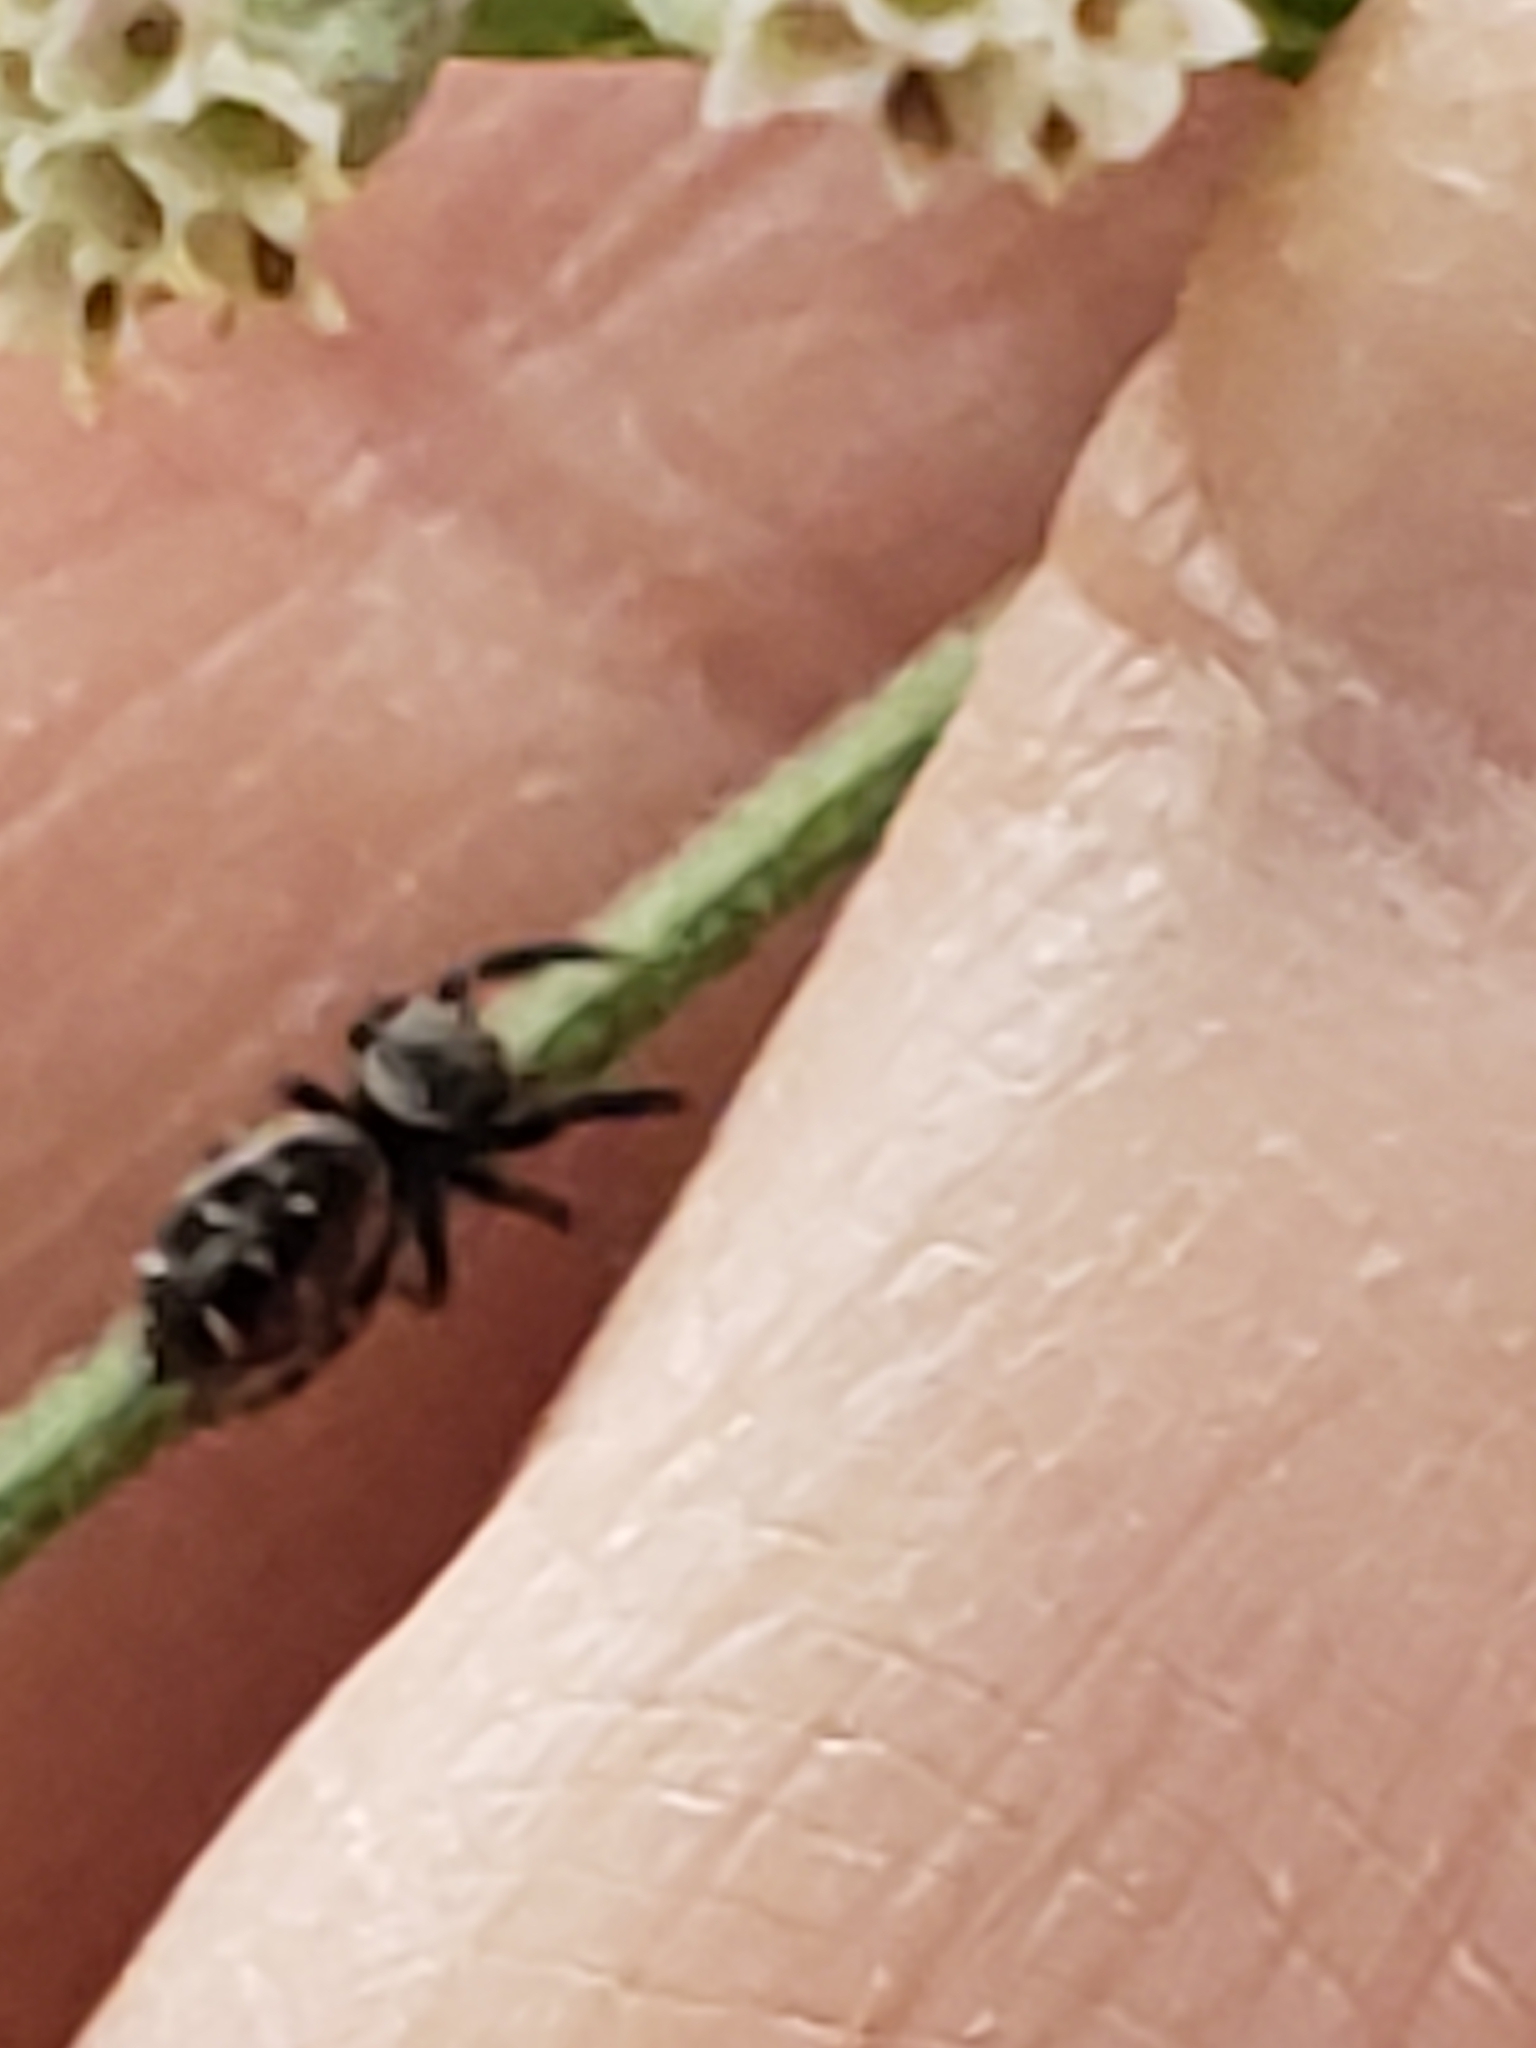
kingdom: Animalia
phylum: Arthropoda
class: Arachnida
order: Araneae
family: Salticidae
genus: Paraphidippus
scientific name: Paraphidippus aurantius
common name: Jumping spiders
